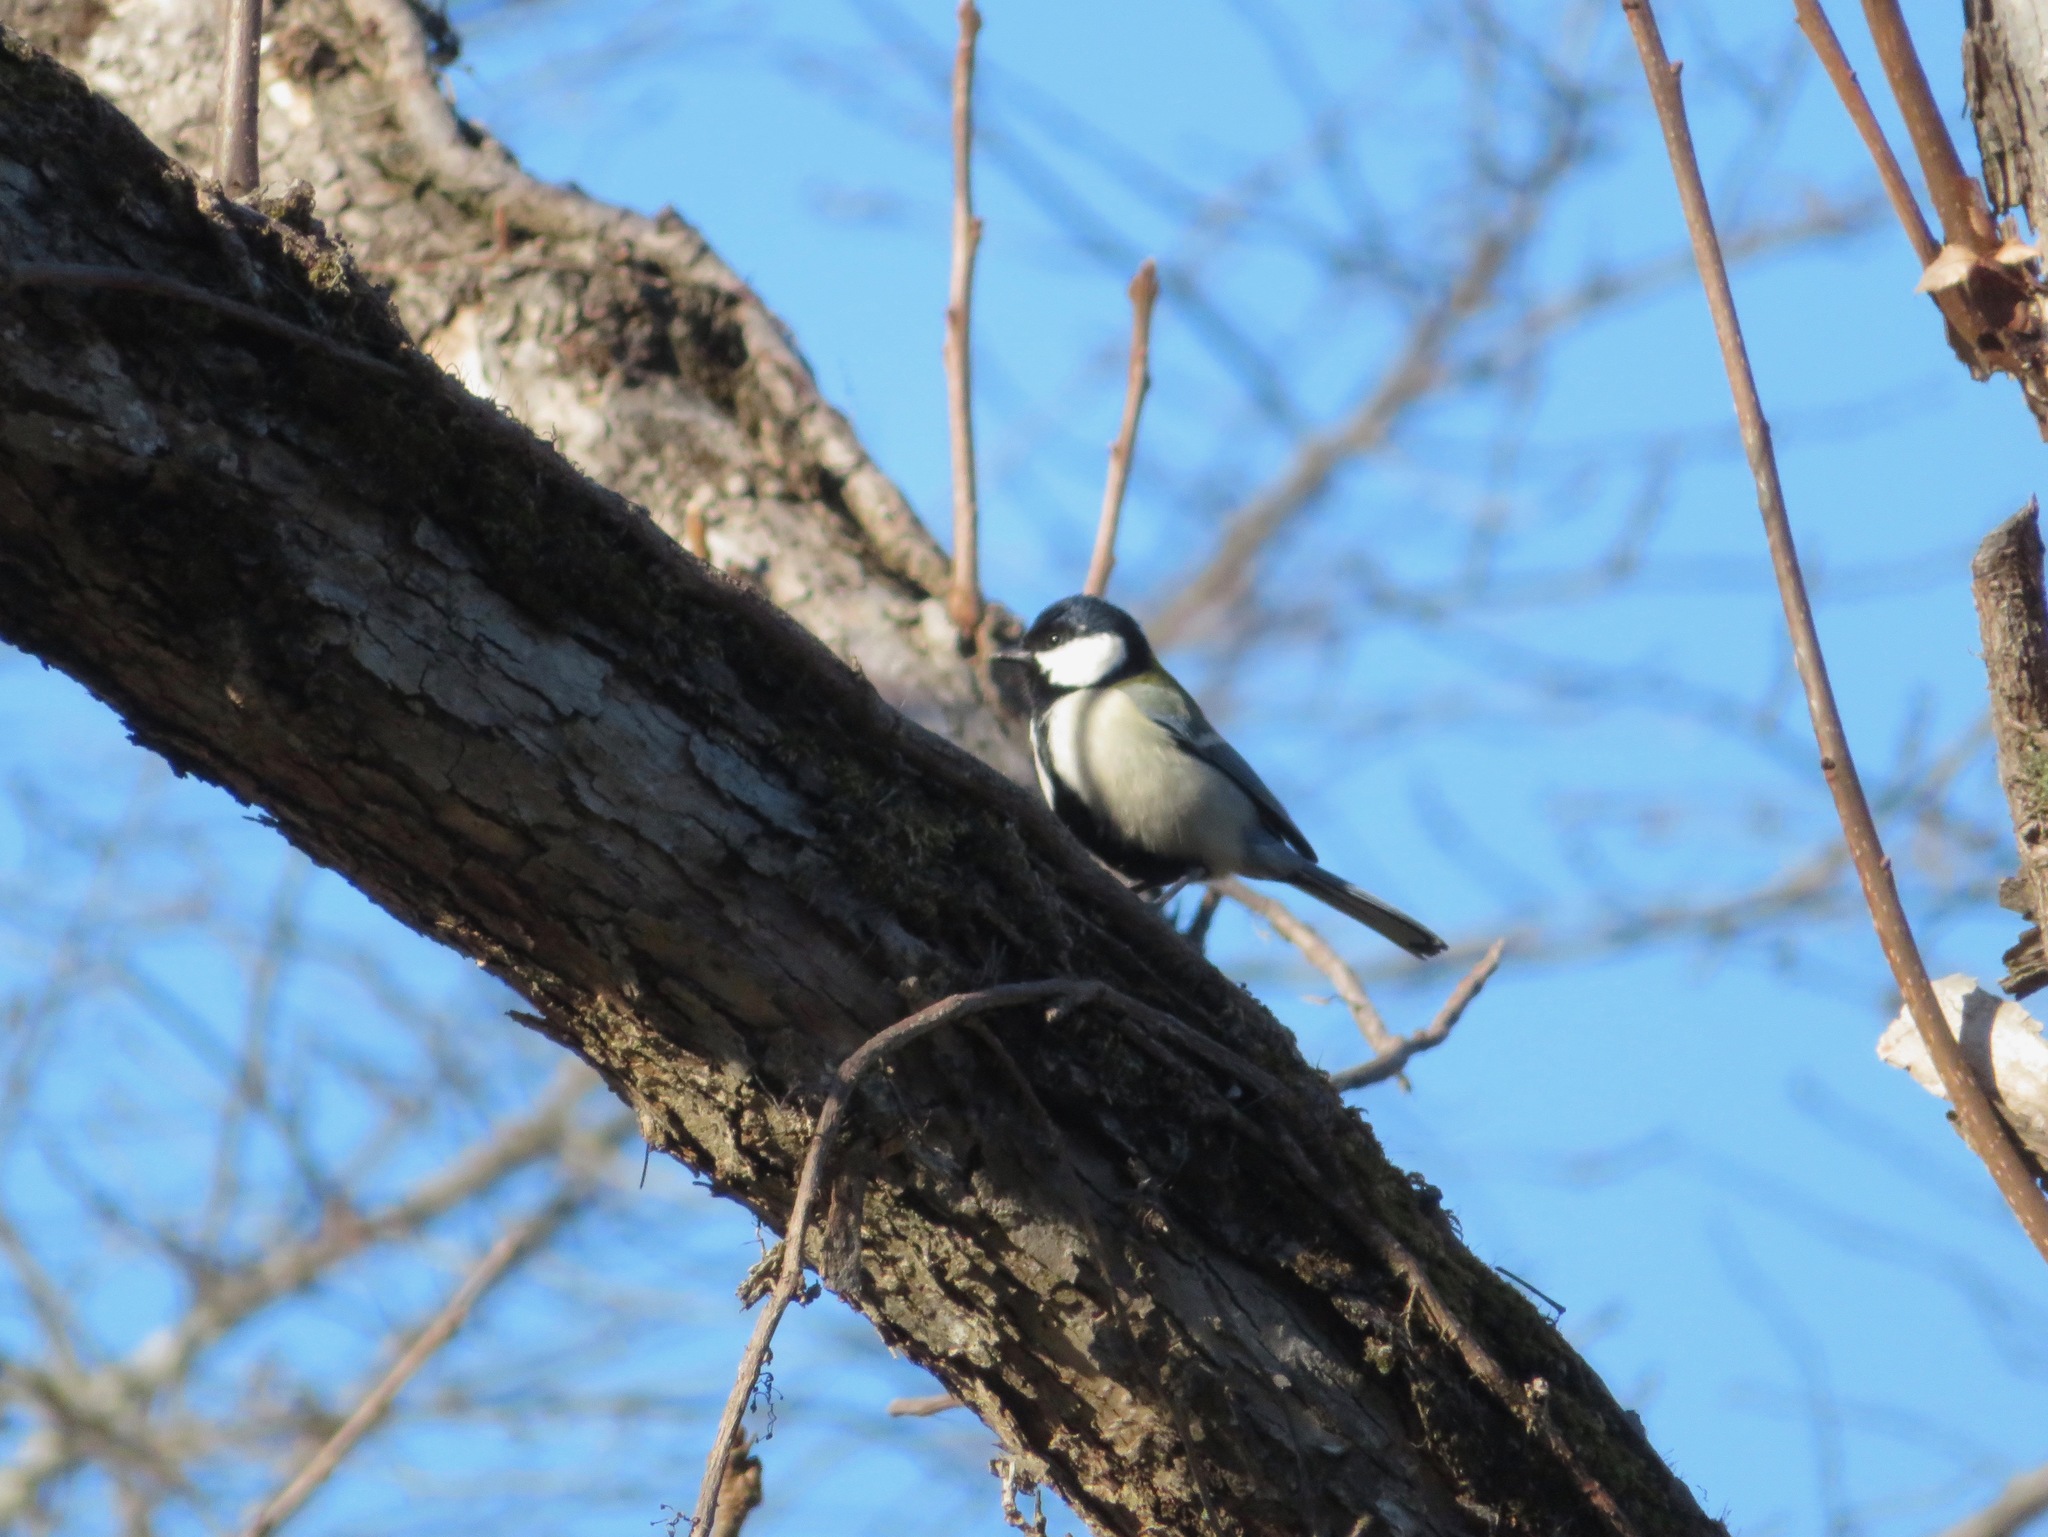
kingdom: Animalia
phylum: Chordata
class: Aves
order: Passeriformes
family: Paridae
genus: Parus
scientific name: Parus minor
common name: Japanese tit
